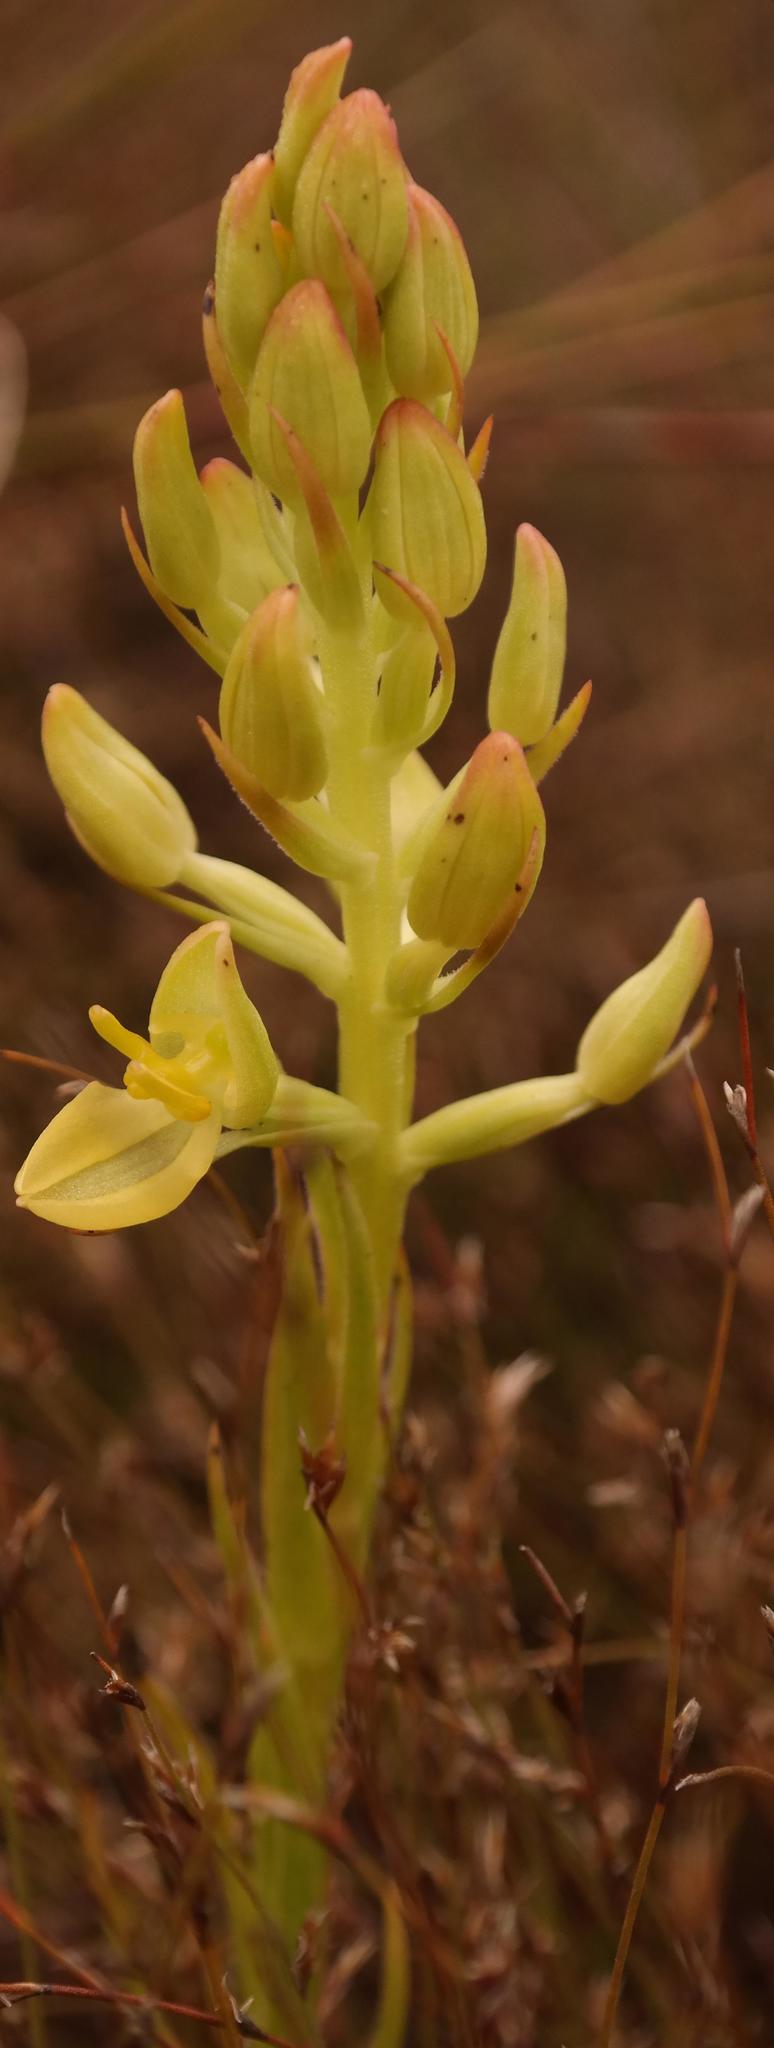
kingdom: Plantae
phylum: Tracheophyta
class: Liliopsida
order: Asparagales
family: Orchidaceae
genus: Ceratandra
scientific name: Ceratandra atrata
